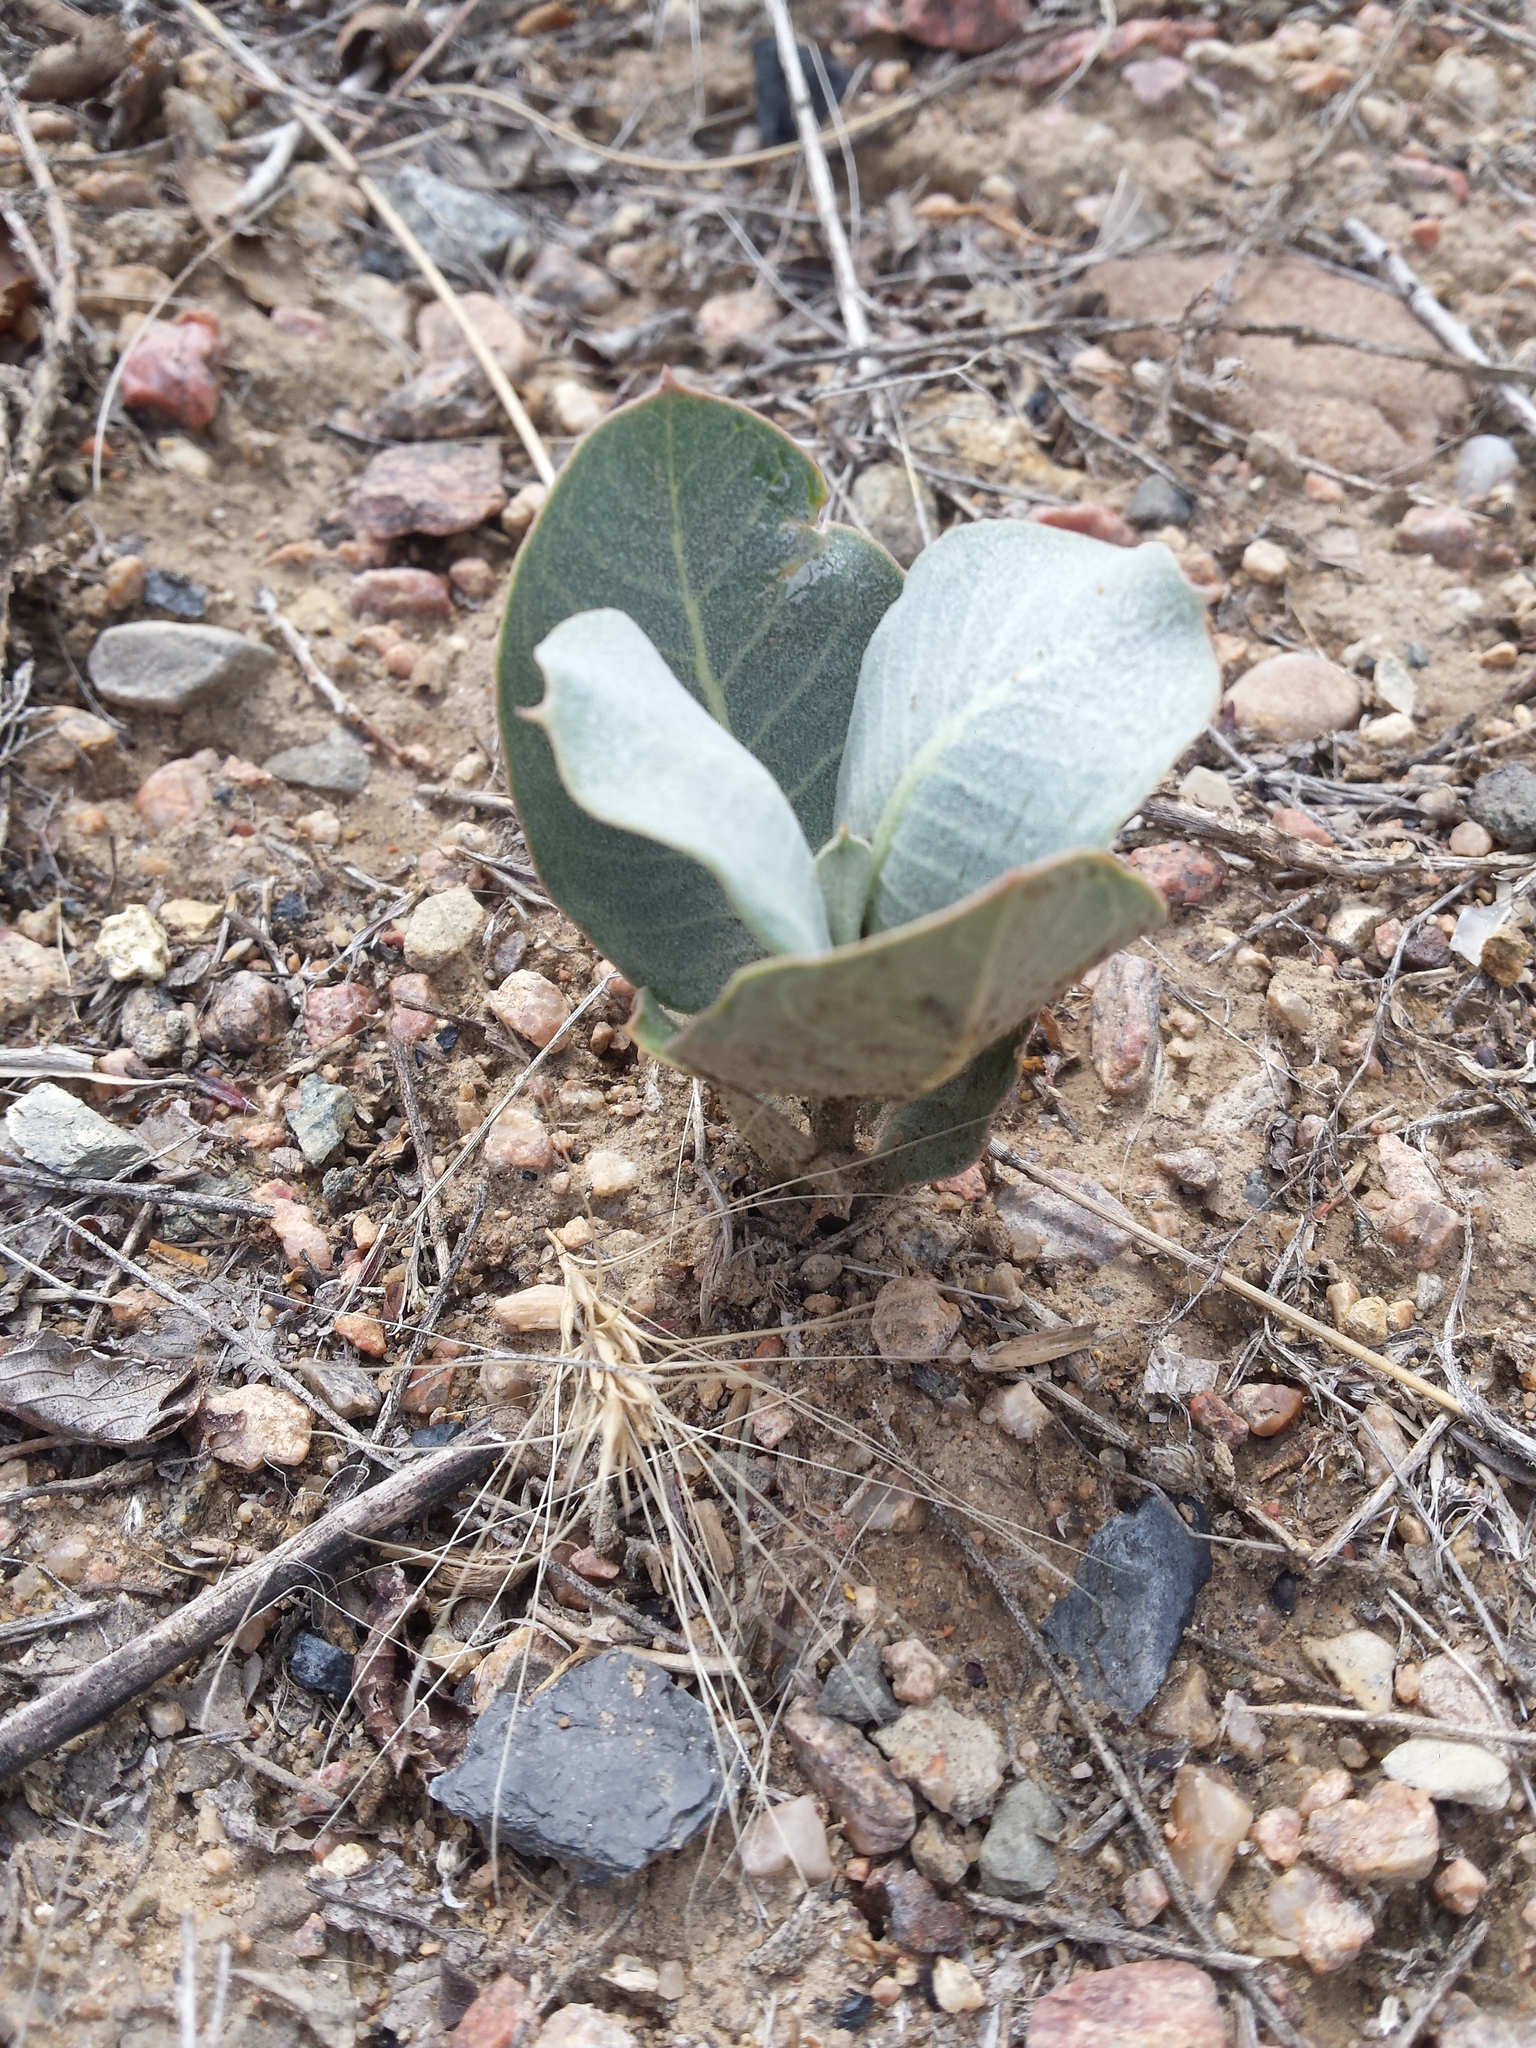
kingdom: Plantae
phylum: Tracheophyta
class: Magnoliopsida
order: Gentianales
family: Apocynaceae
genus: Asclepias
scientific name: Asclepias latifolia
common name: Broadleaf milkweed
